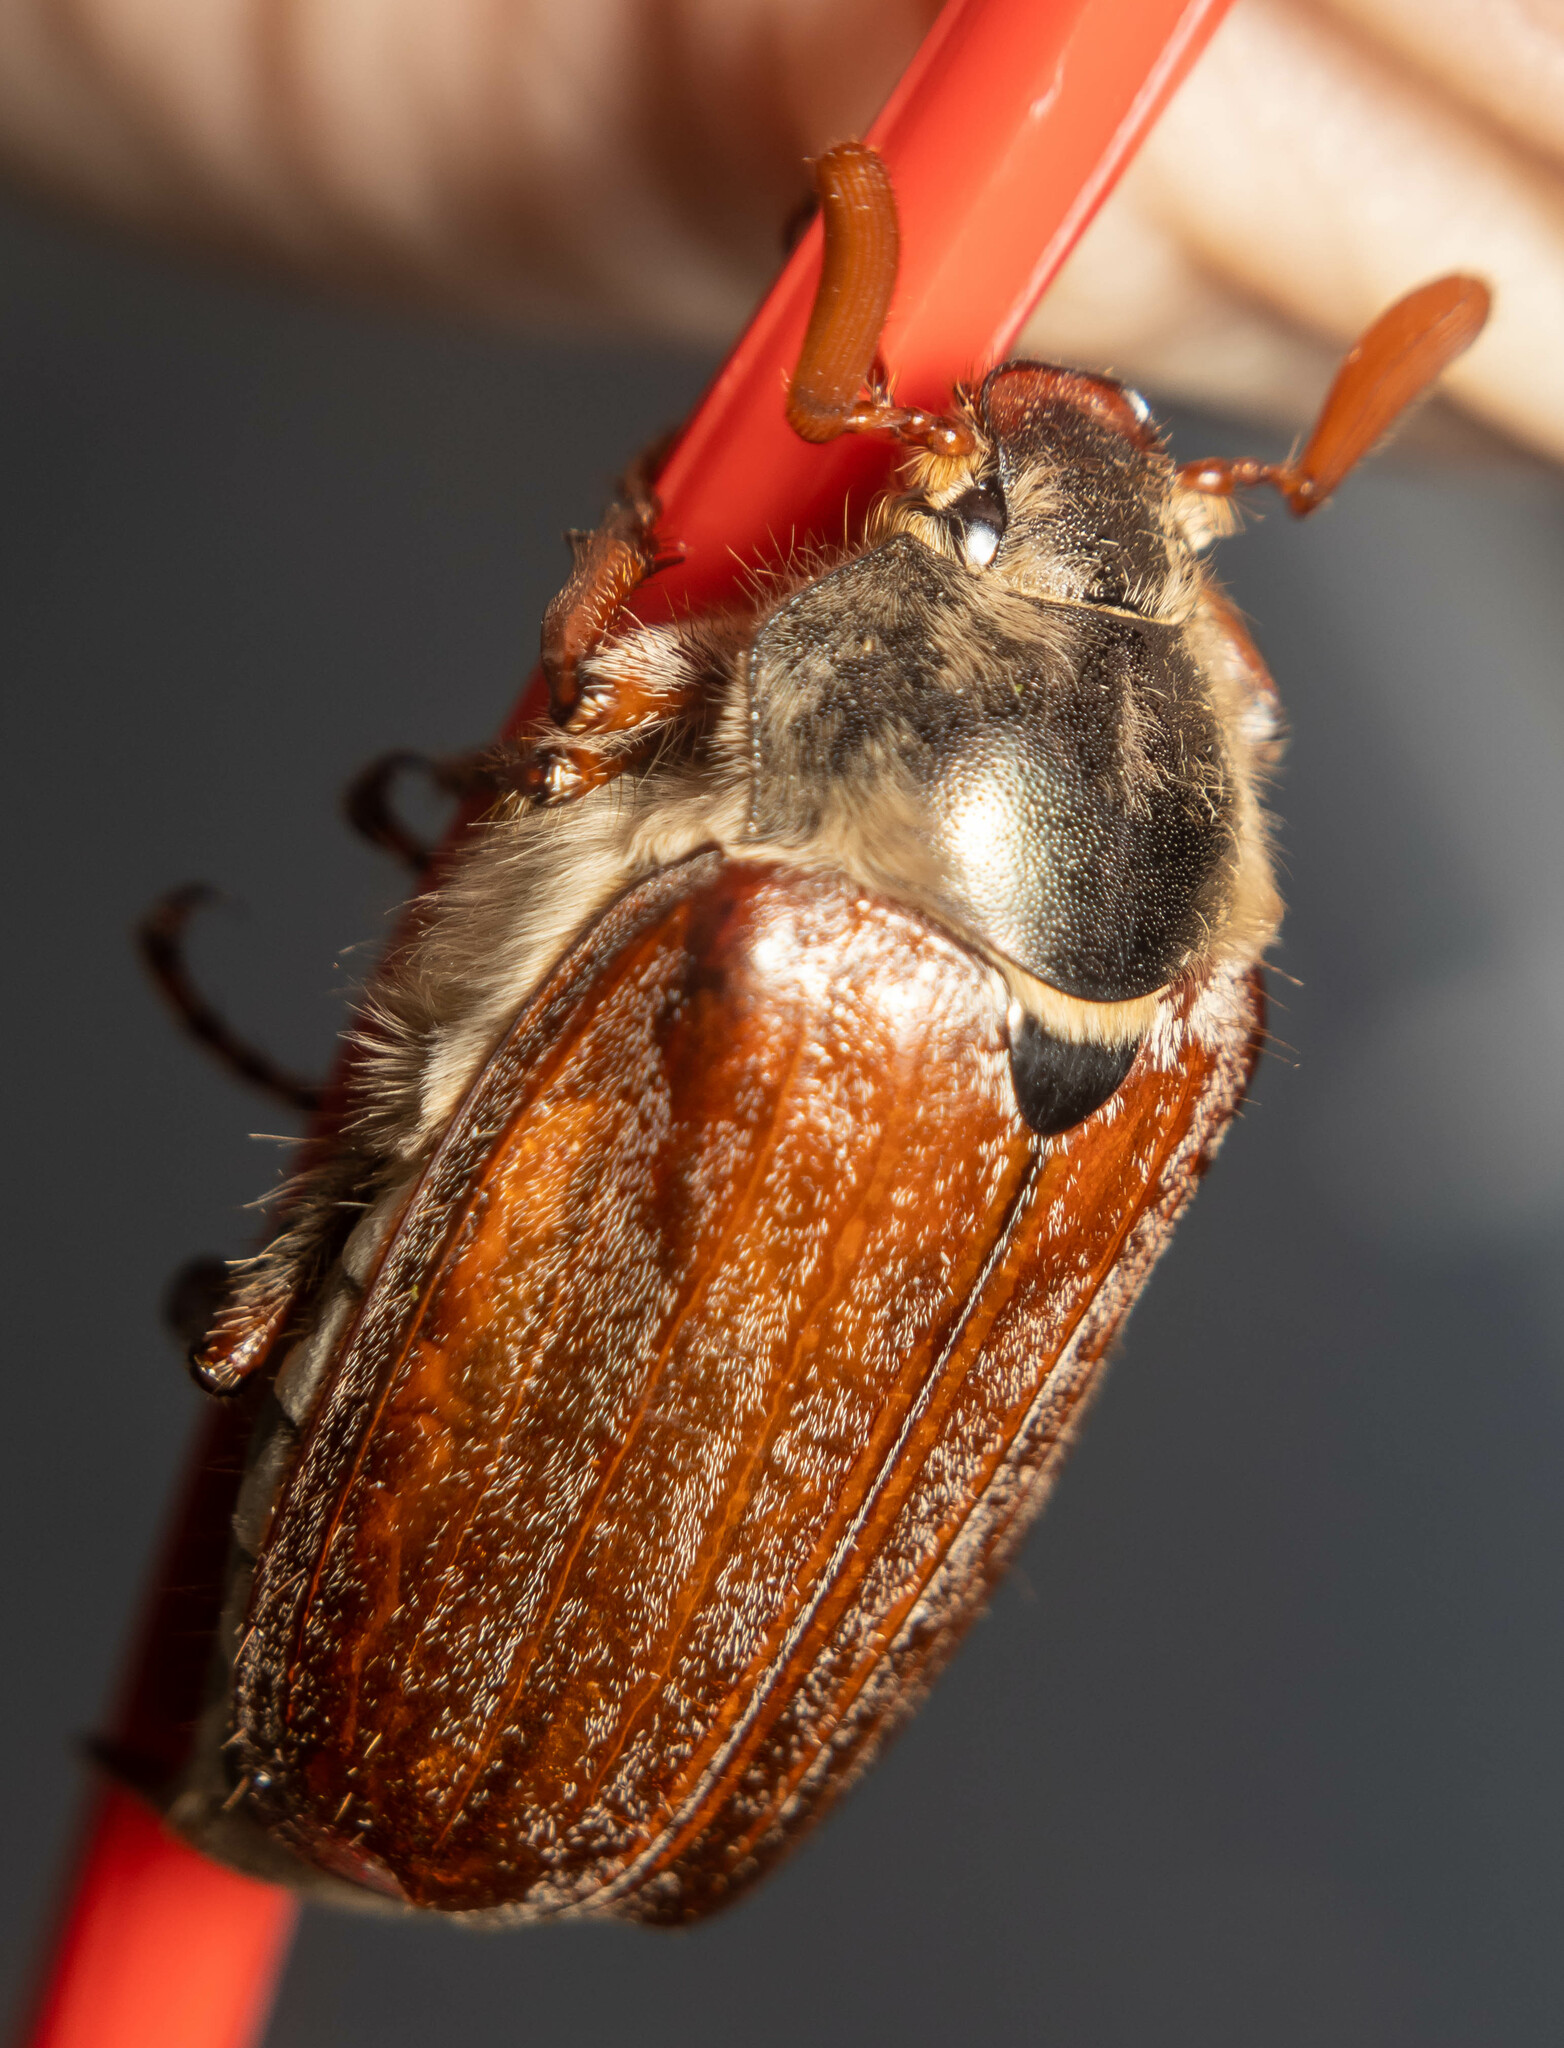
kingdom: Animalia
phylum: Arthropoda
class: Insecta
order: Coleoptera
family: Scarabaeidae
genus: Melolontha
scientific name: Melolontha melolontha
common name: Cockchafer maybeetle
